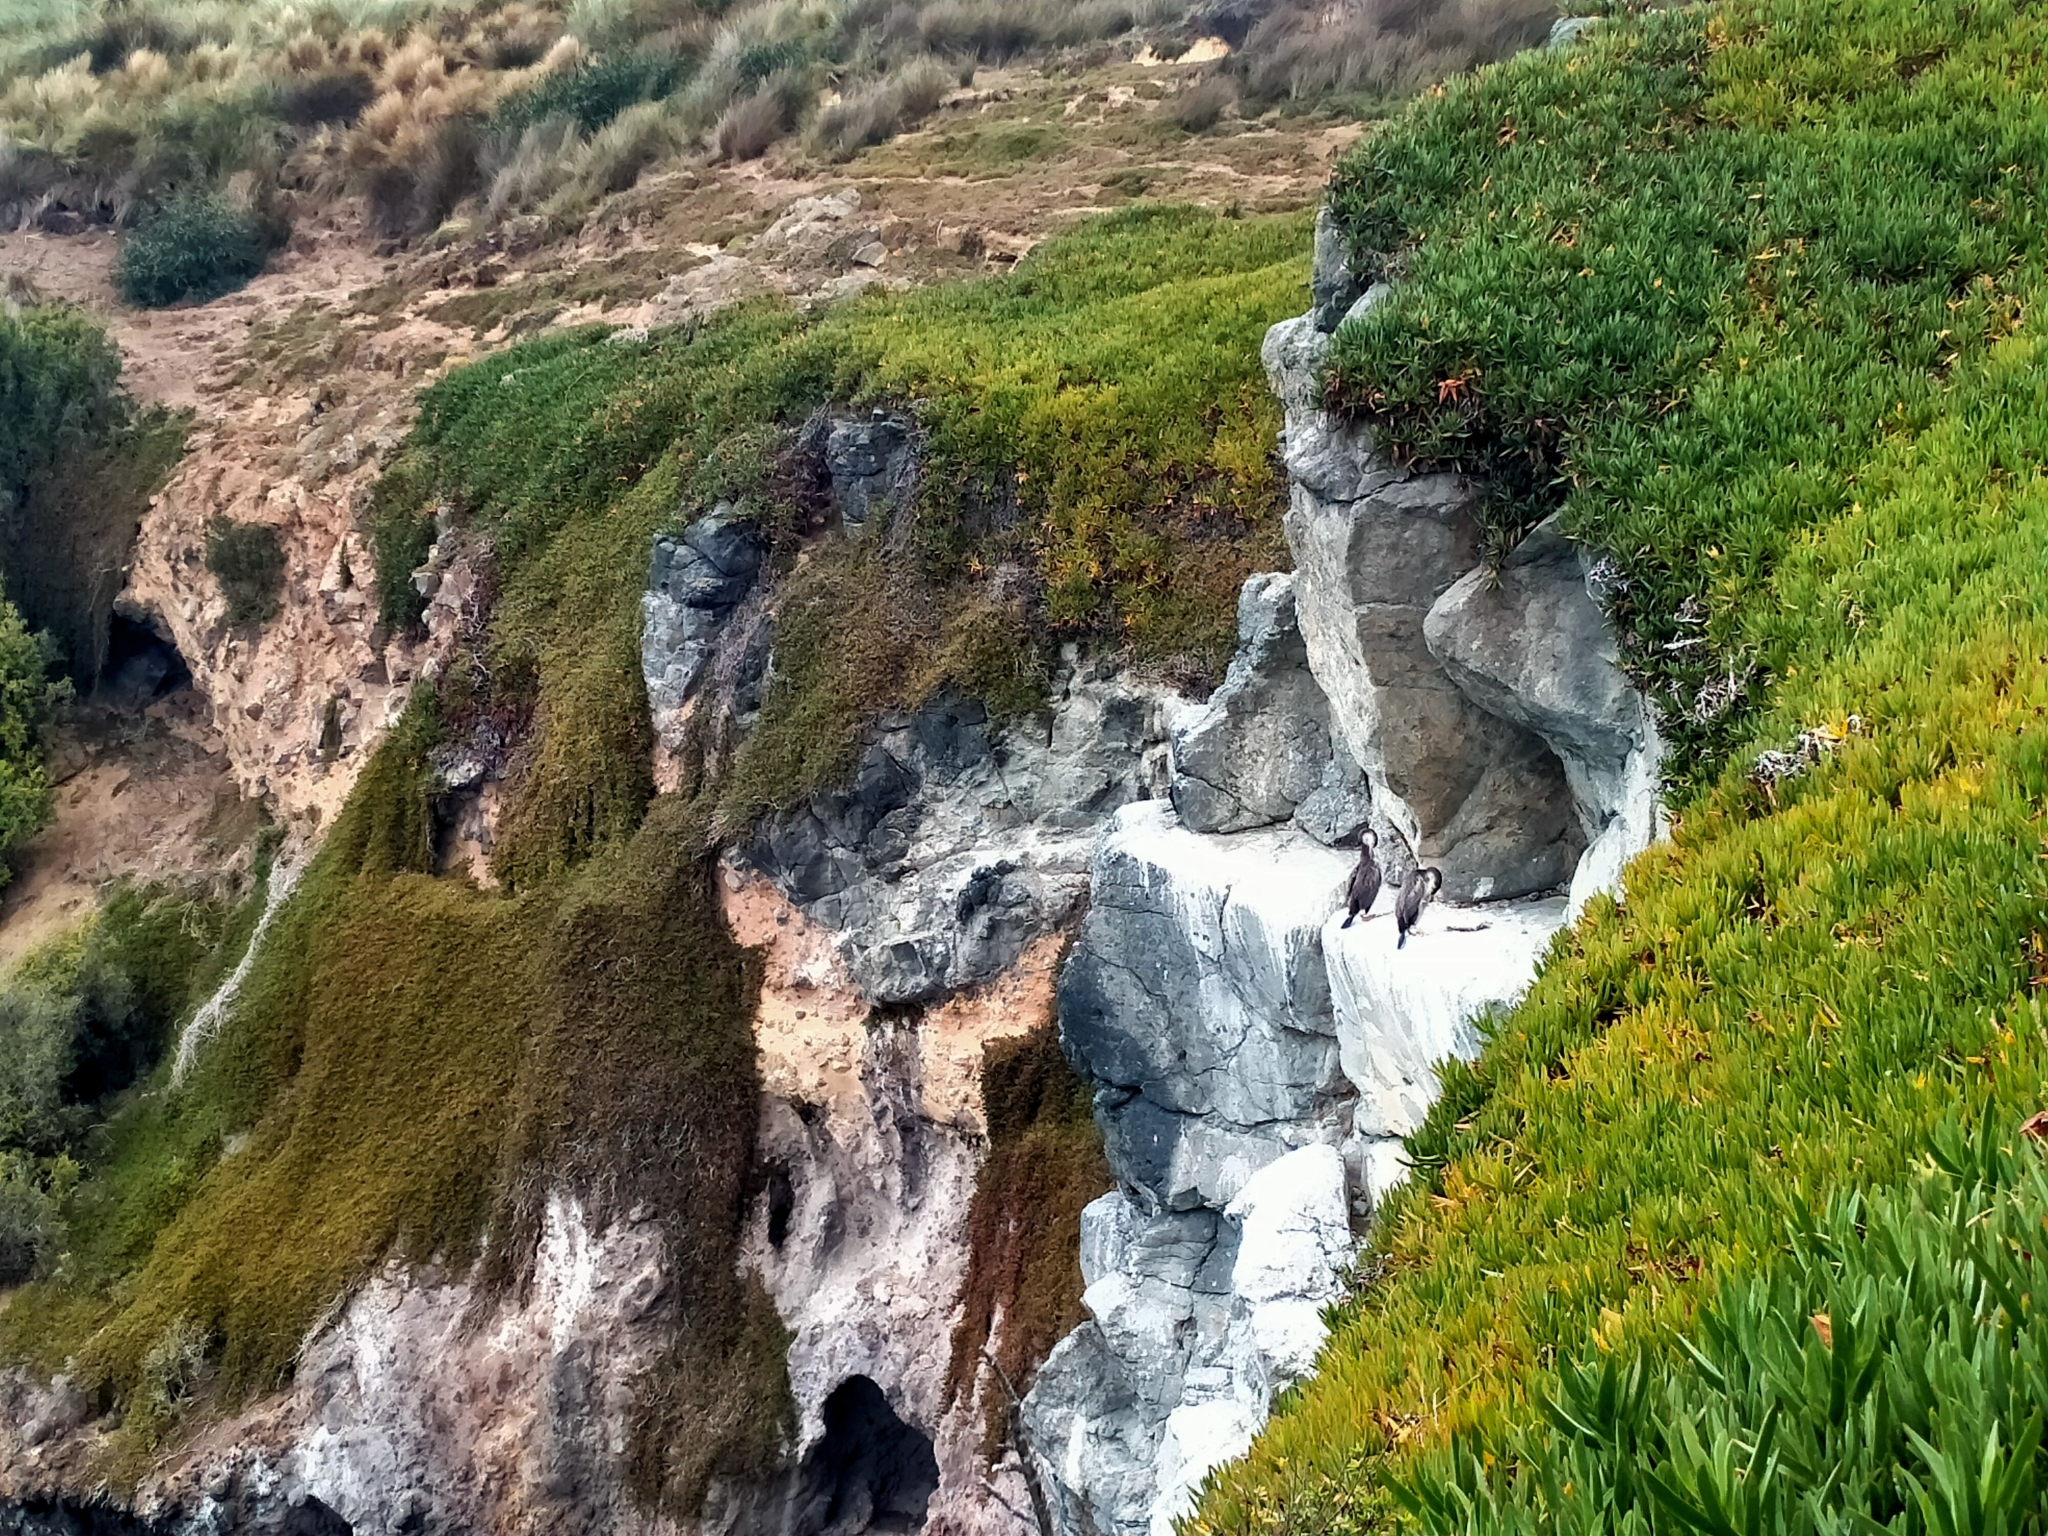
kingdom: Animalia
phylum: Chordata
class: Aves
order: Suliformes
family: Phalacrocoracidae
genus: Phalacrocorax
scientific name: Phalacrocorax punctatus
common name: Spotted shag
